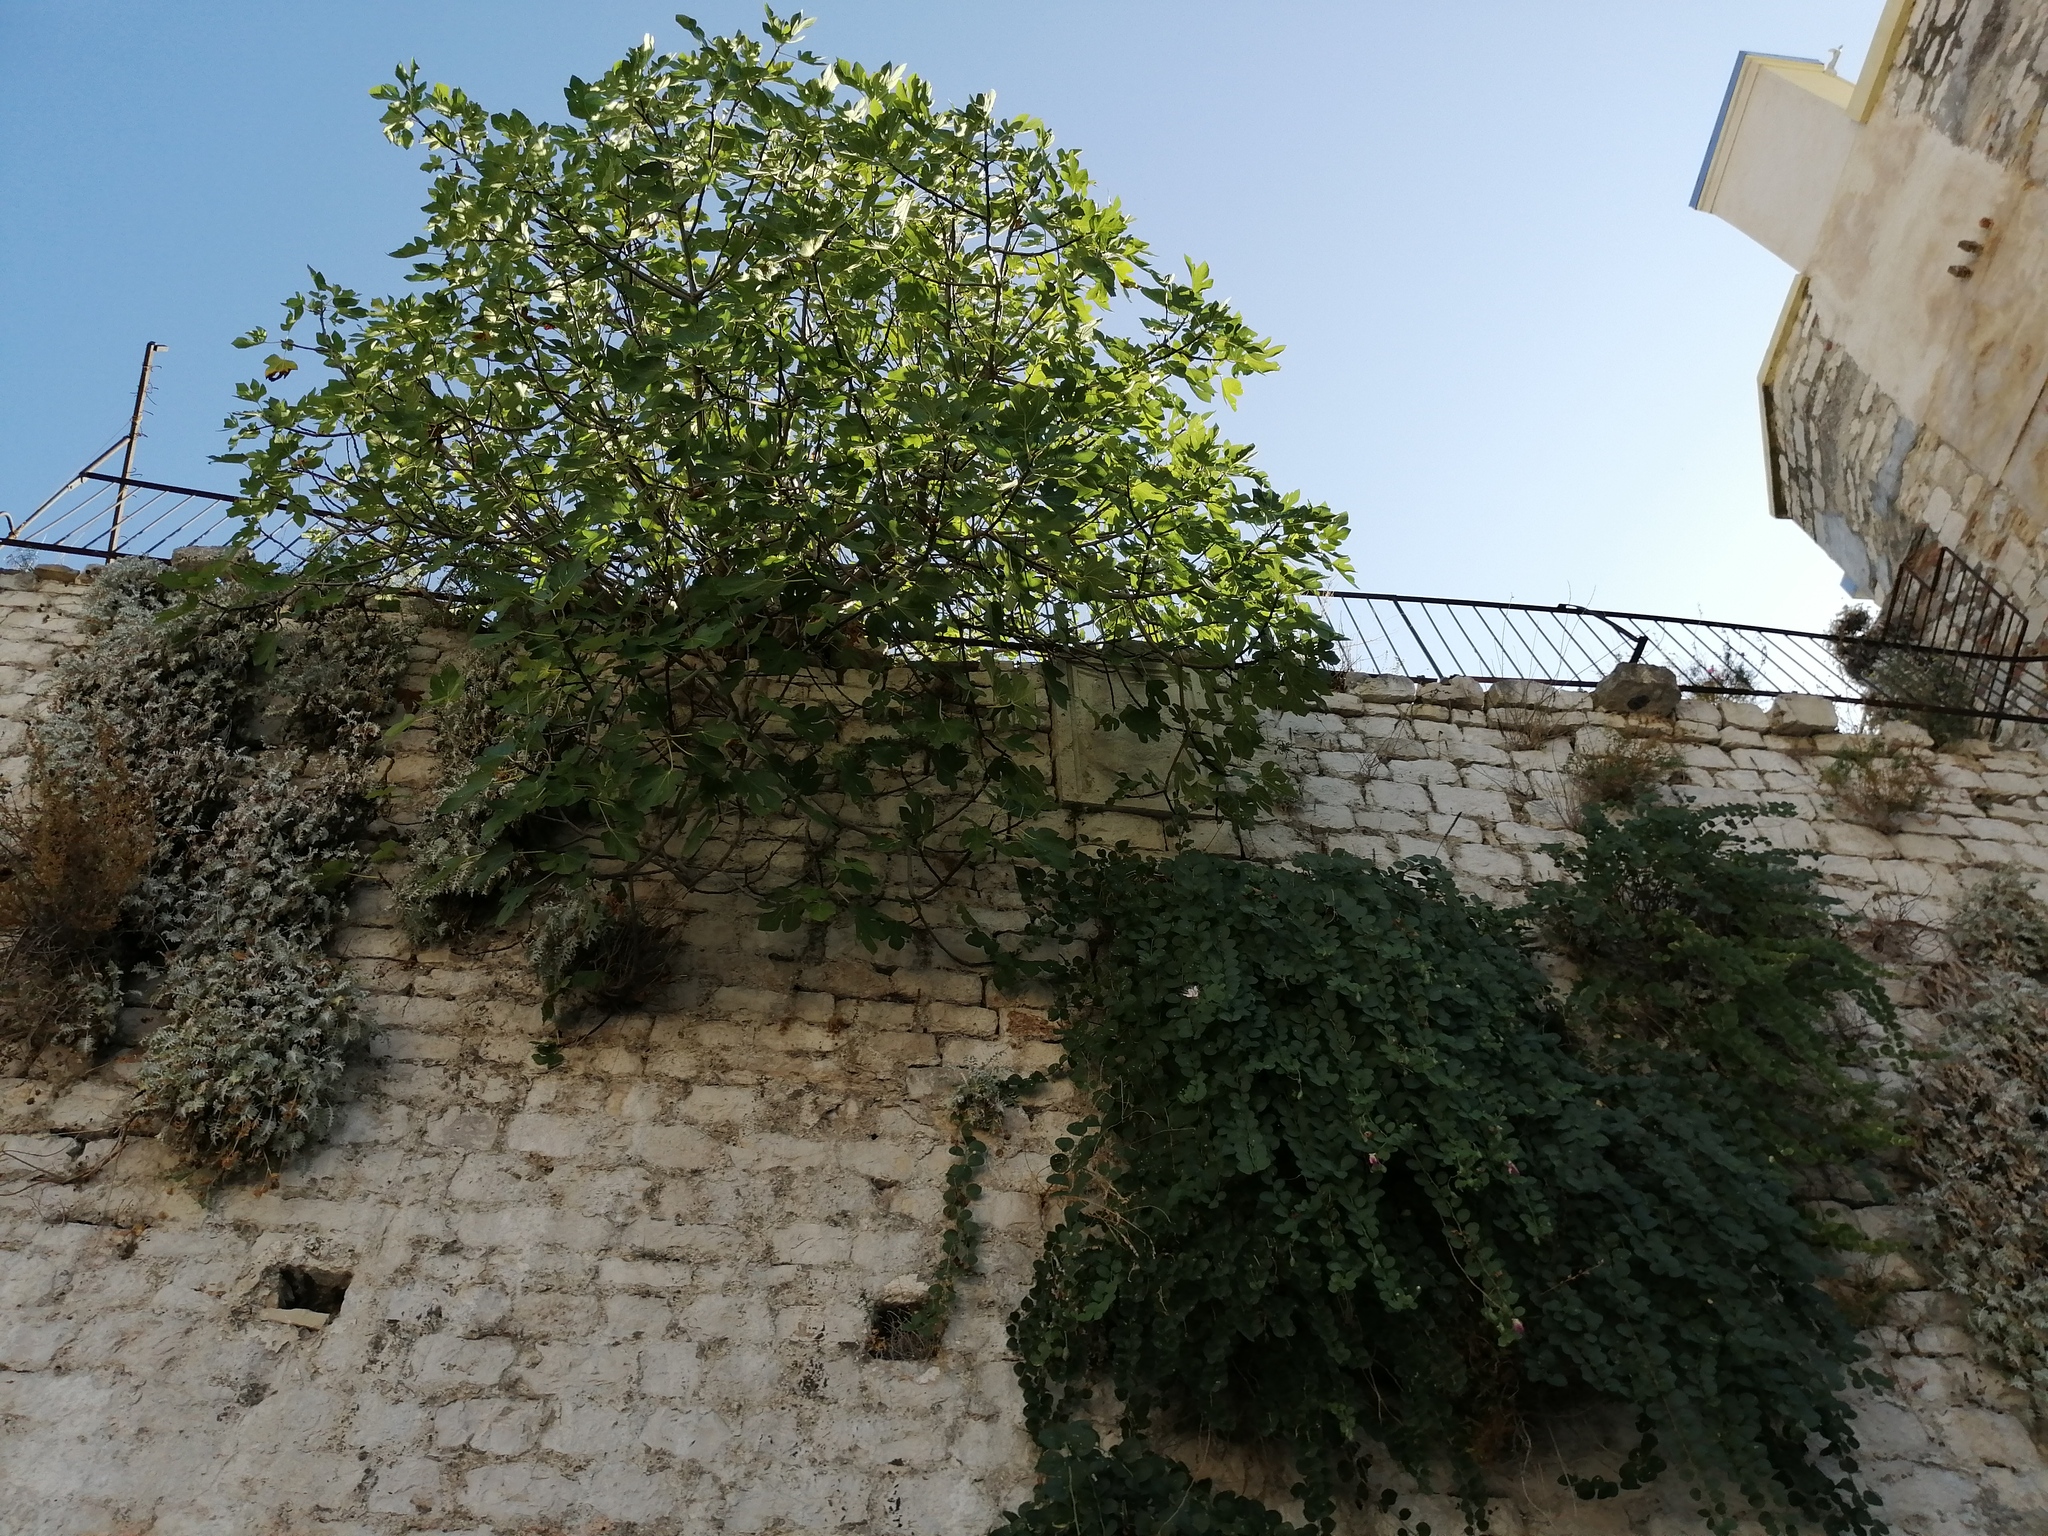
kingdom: Plantae
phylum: Tracheophyta
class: Magnoliopsida
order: Rosales
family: Moraceae
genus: Ficus
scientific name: Ficus carica
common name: Fig
